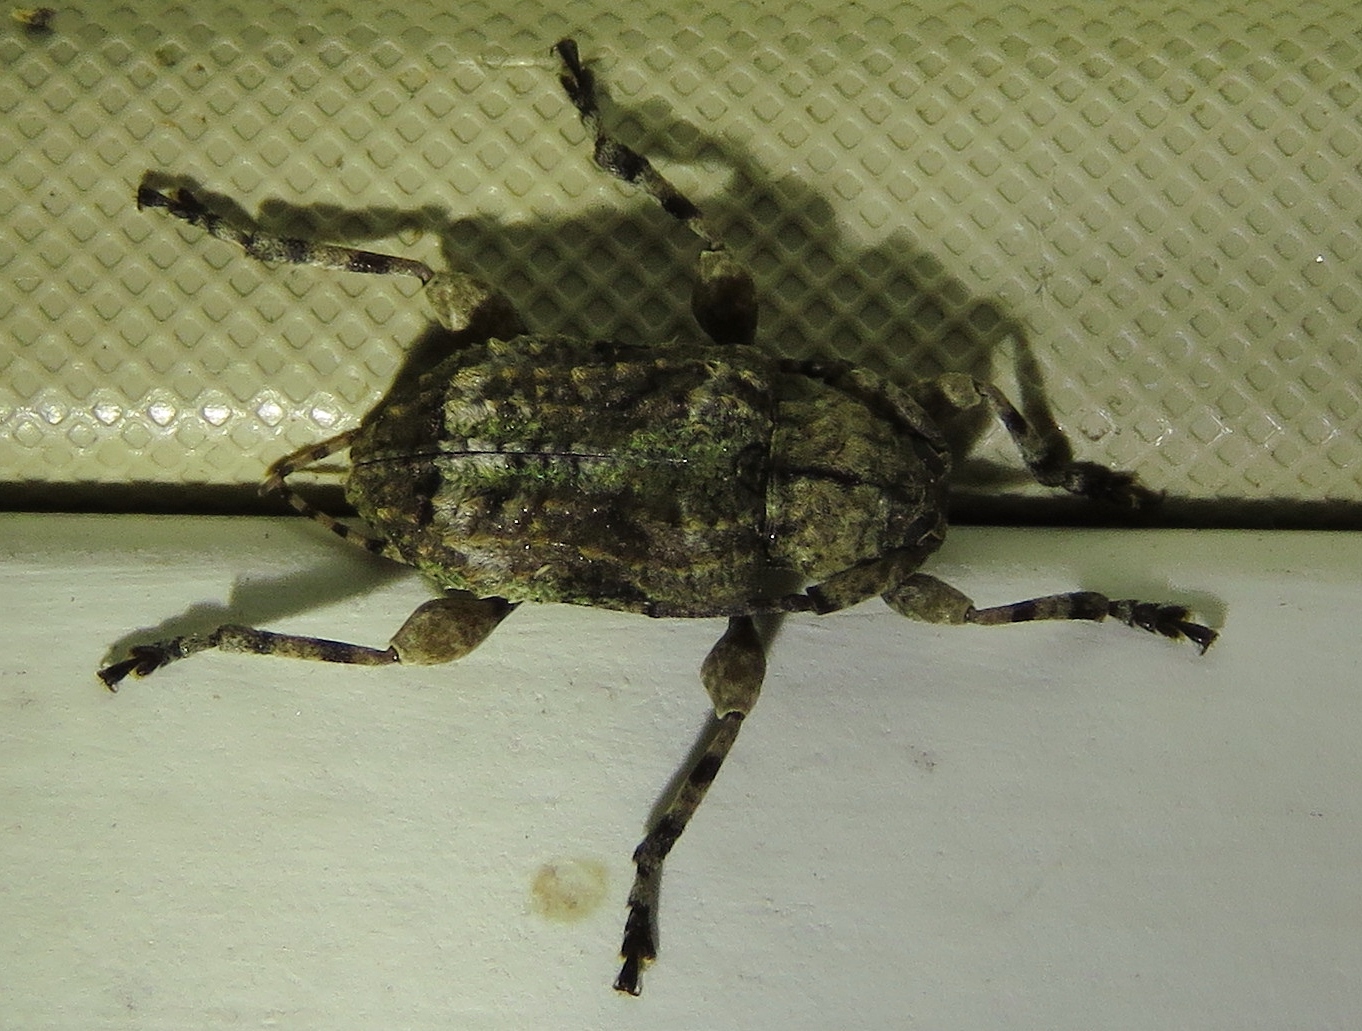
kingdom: Animalia
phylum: Arthropoda
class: Insecta
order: Coleoptera
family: Cerambycidae
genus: Leptostylus
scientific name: Leptostylus transversus
